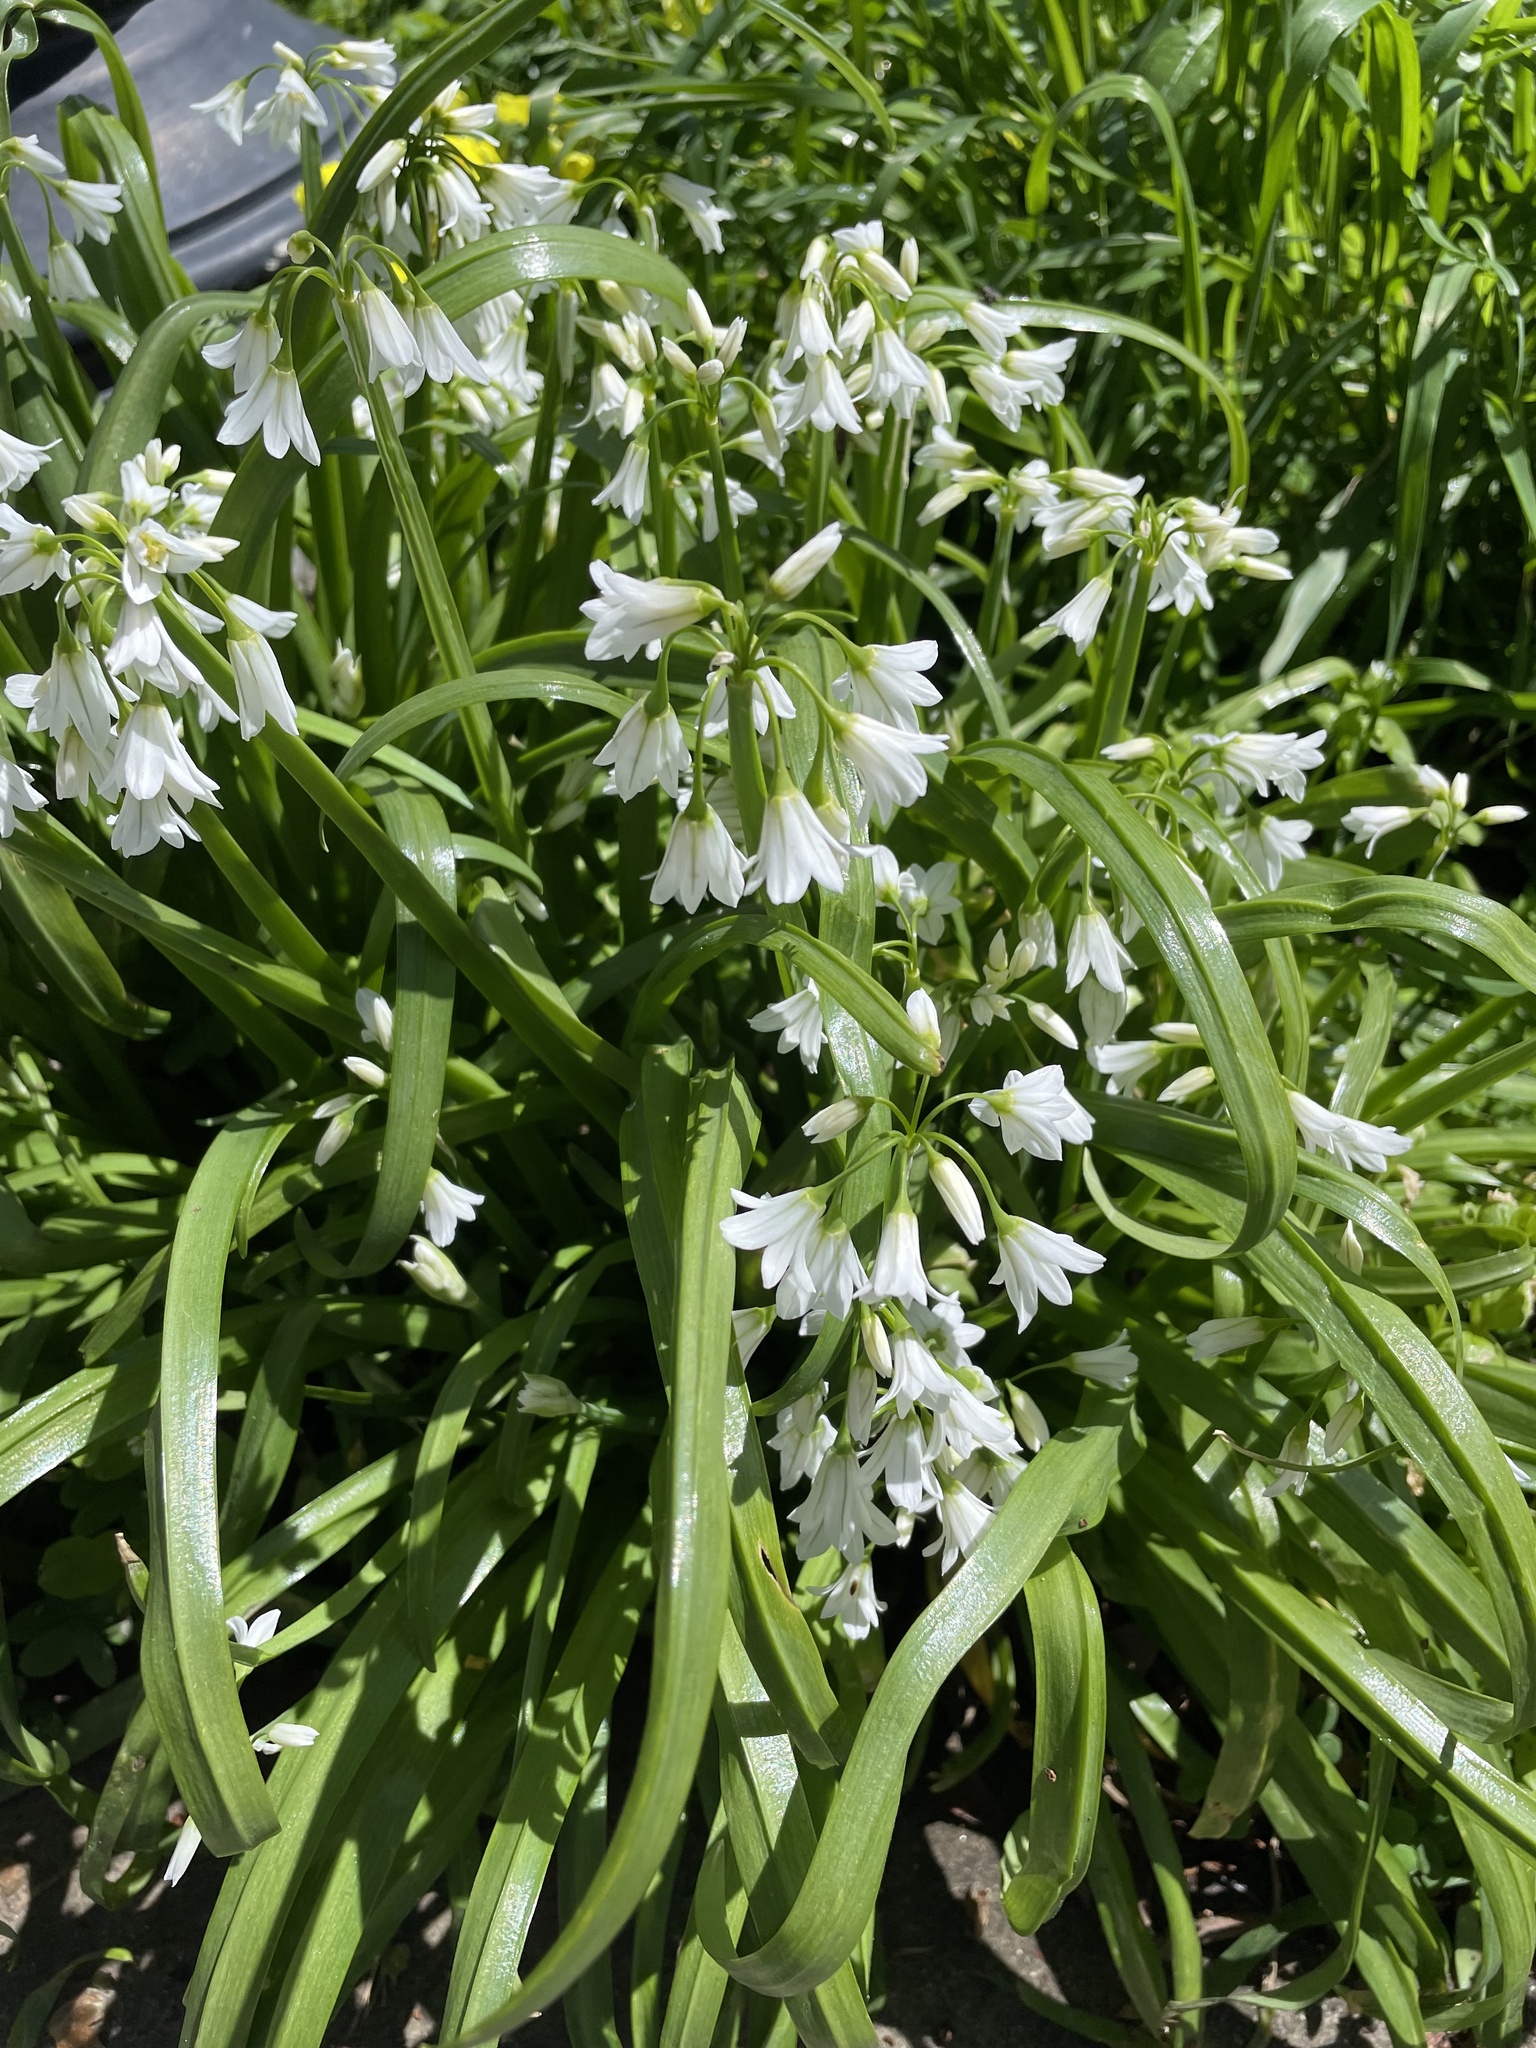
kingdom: Plantae
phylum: Tracheophyta
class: Liliopsida
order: Asparagales
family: Amaryllidaceae
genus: Allium
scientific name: Allium triquetrum
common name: Three-cornered garlic
